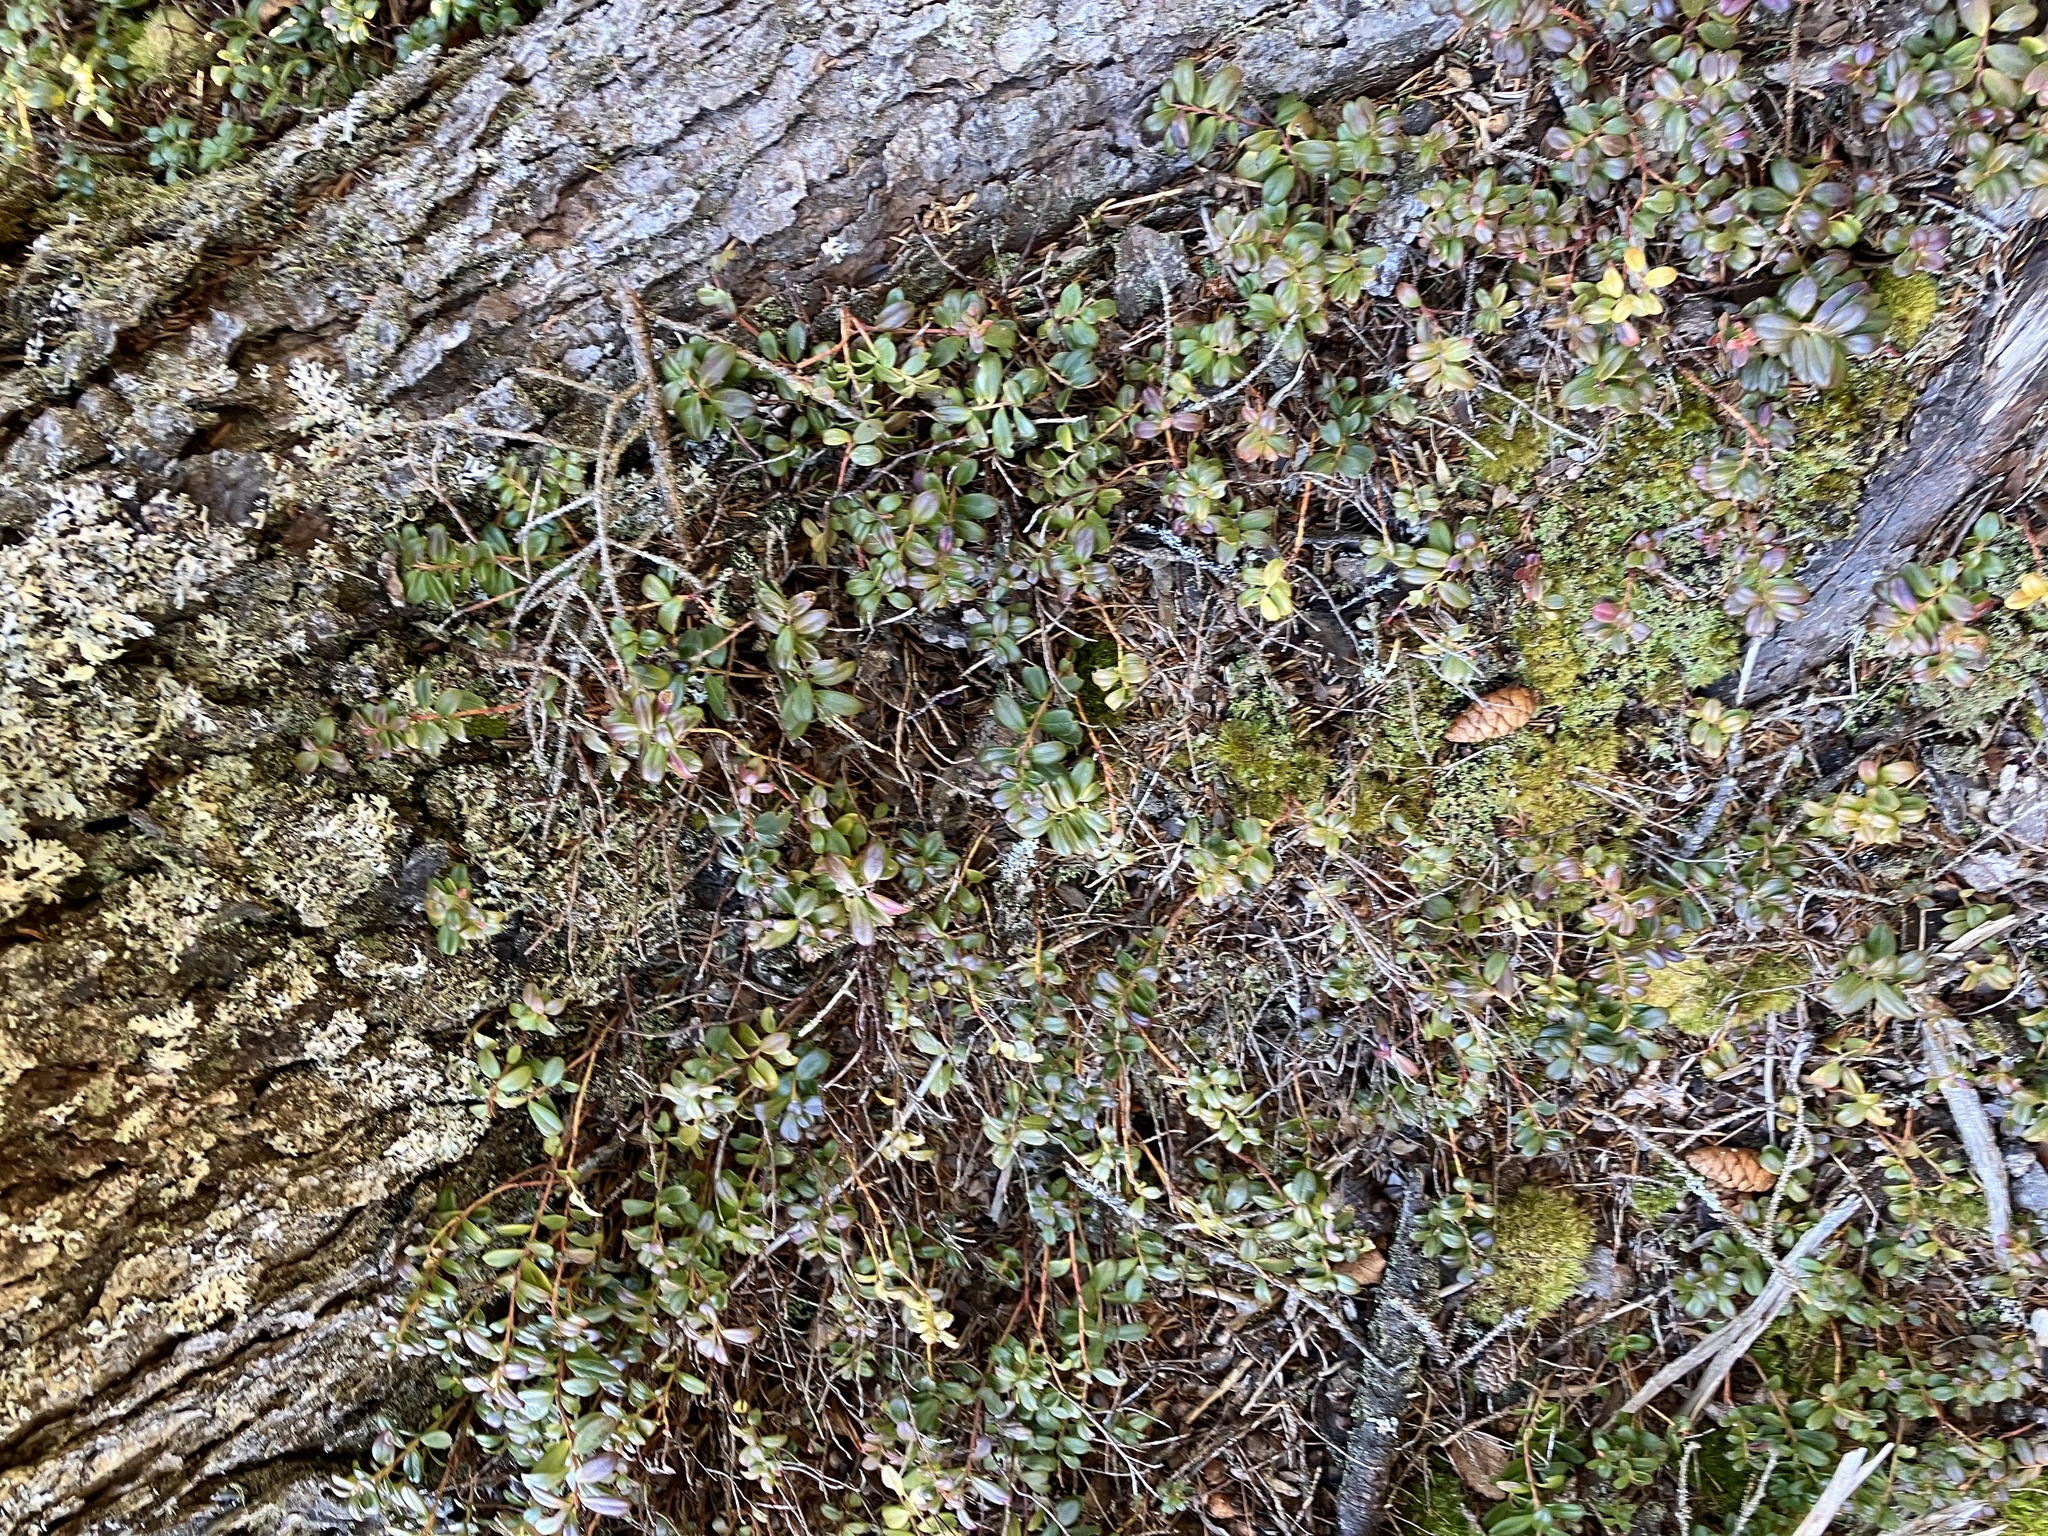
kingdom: Plantae
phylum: Tracheophyta
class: Magnoliopsida
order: Ericales
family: Ericaceae
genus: Vaccinium
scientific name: Vaccinium vitis-idaea
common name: Cowberry
